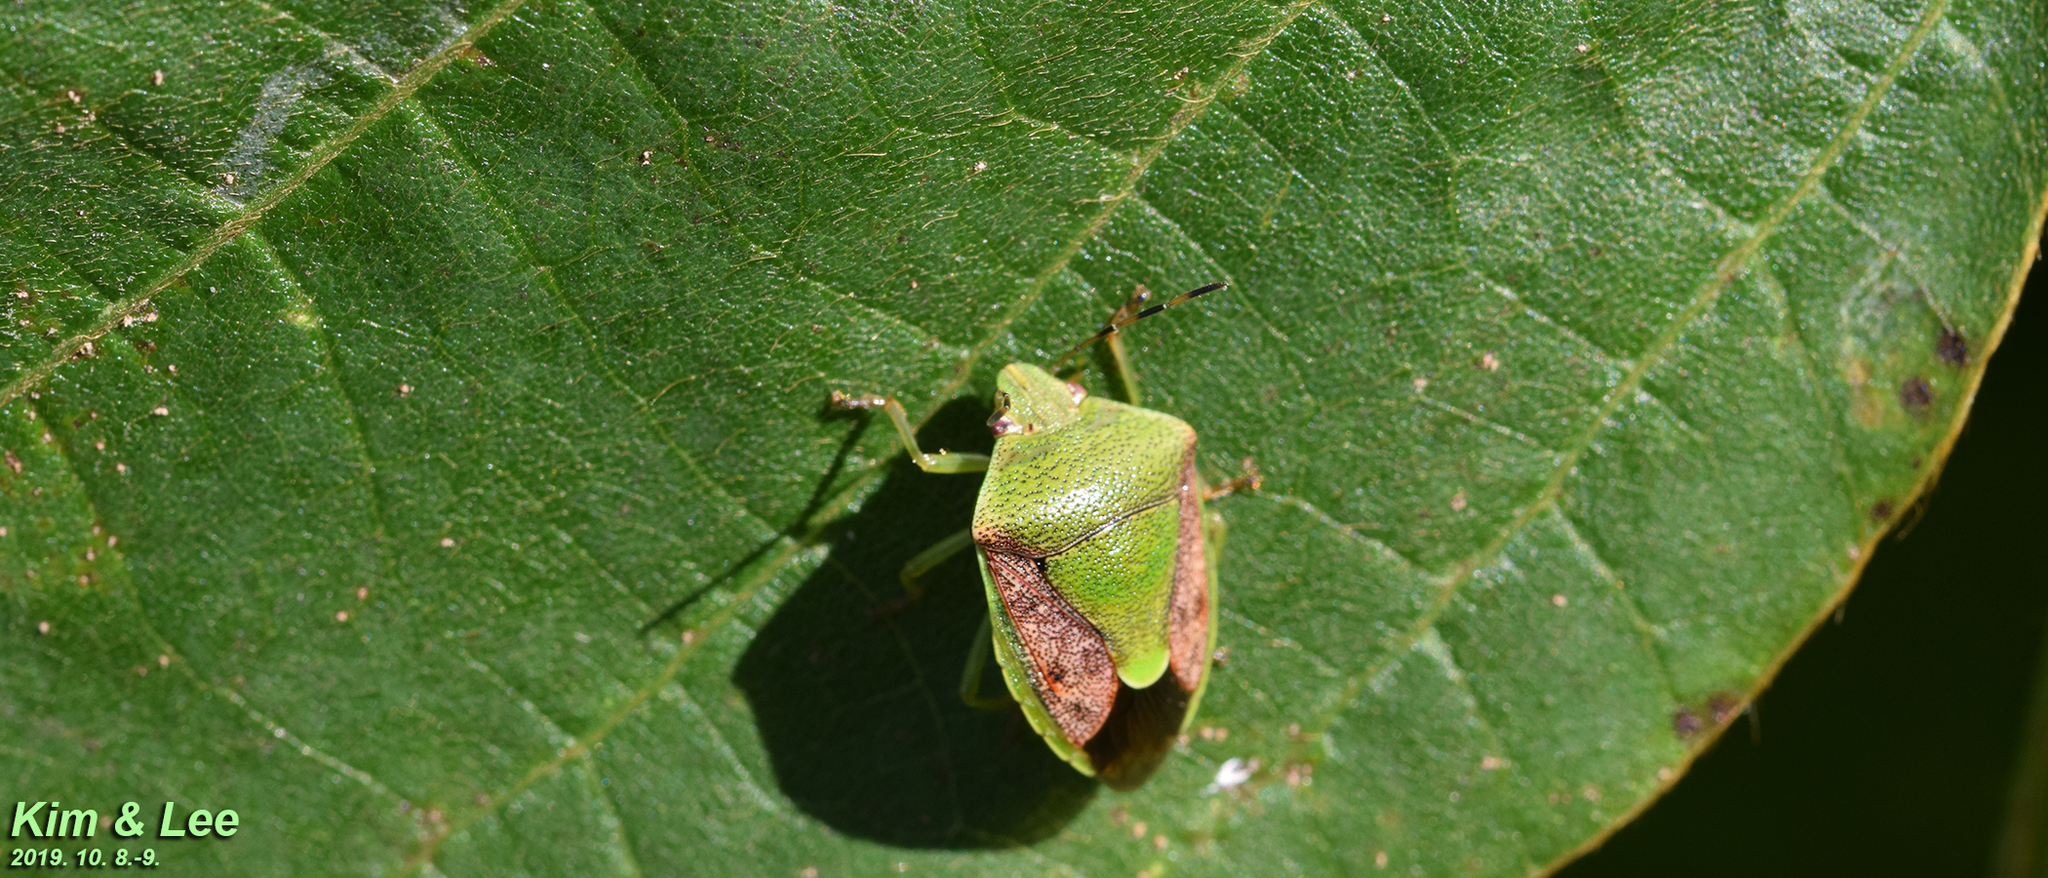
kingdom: Animalia
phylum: Arthropoda
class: Insecta
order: Hemiptera
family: Pentatomidae
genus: Plautia
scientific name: Plautia stali
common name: Stink bug
